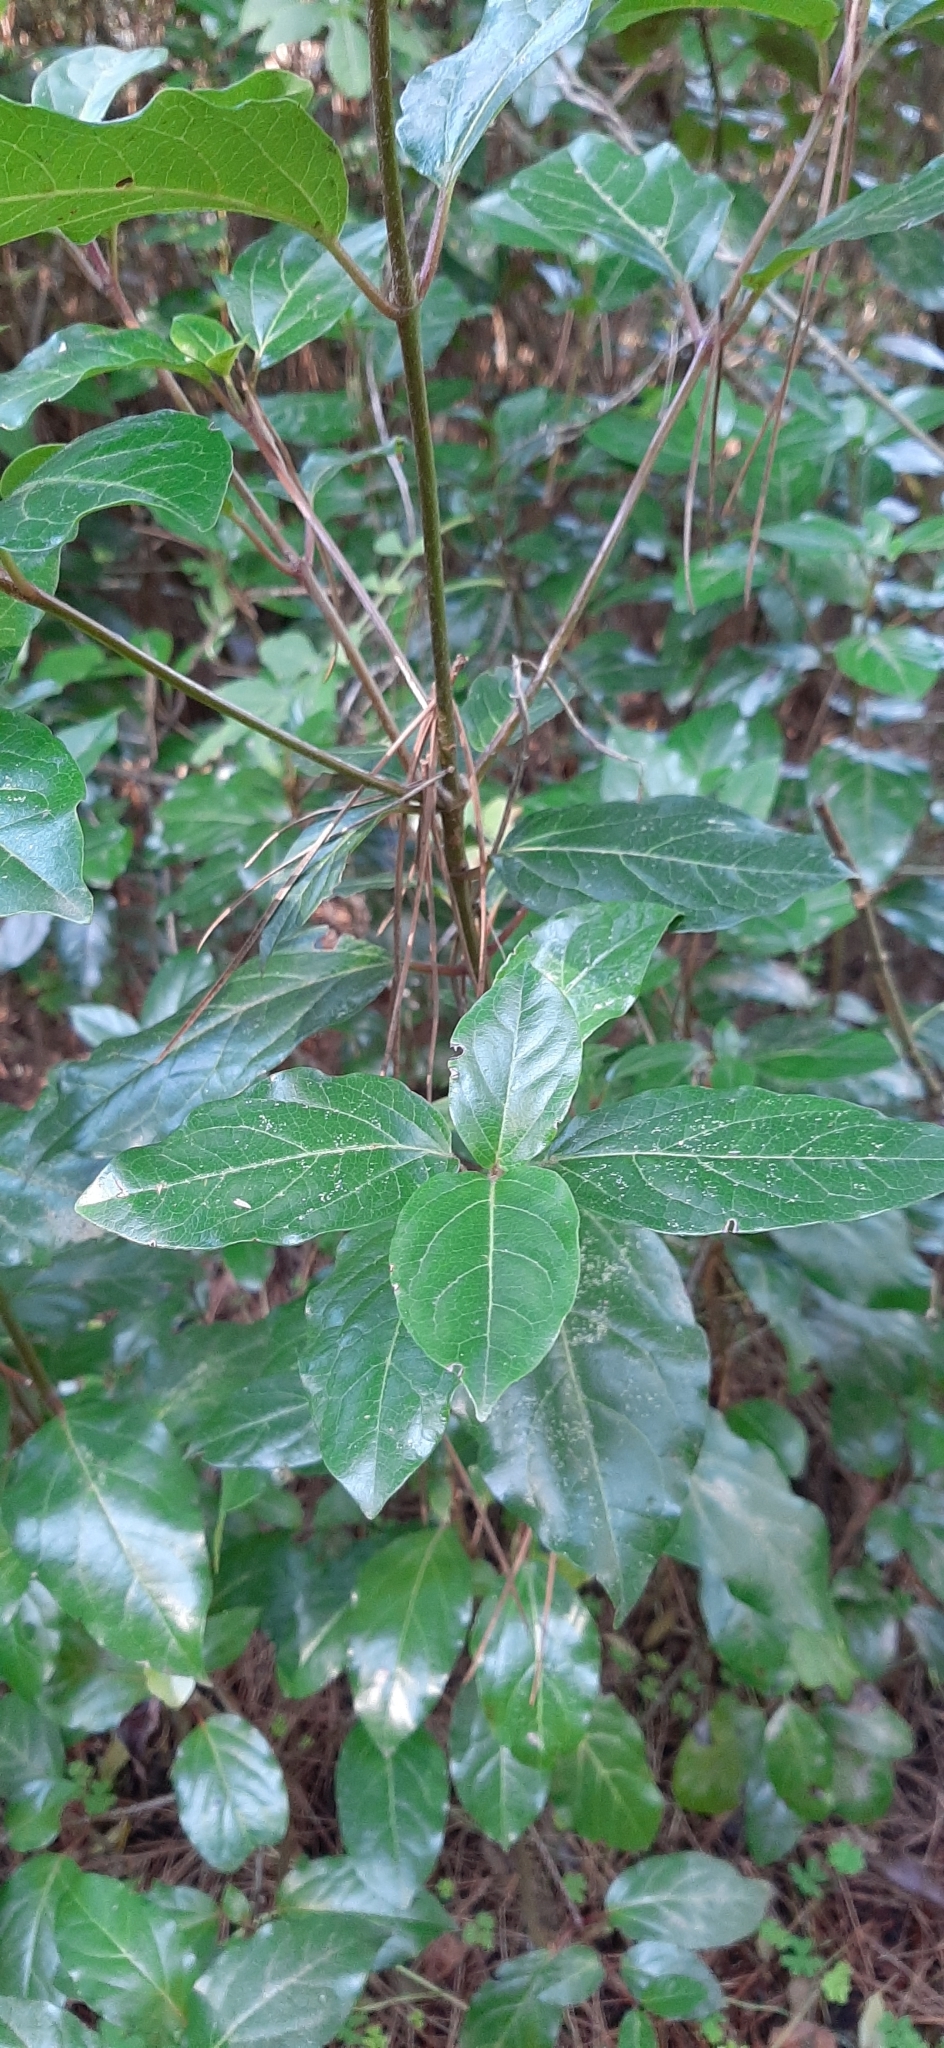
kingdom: Plantae
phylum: Tracheophyta
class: Magnoliopsida
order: Dipsacales
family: Viburnaceae
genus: Viburnum
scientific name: Viburnum tinus
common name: Laurustinus
